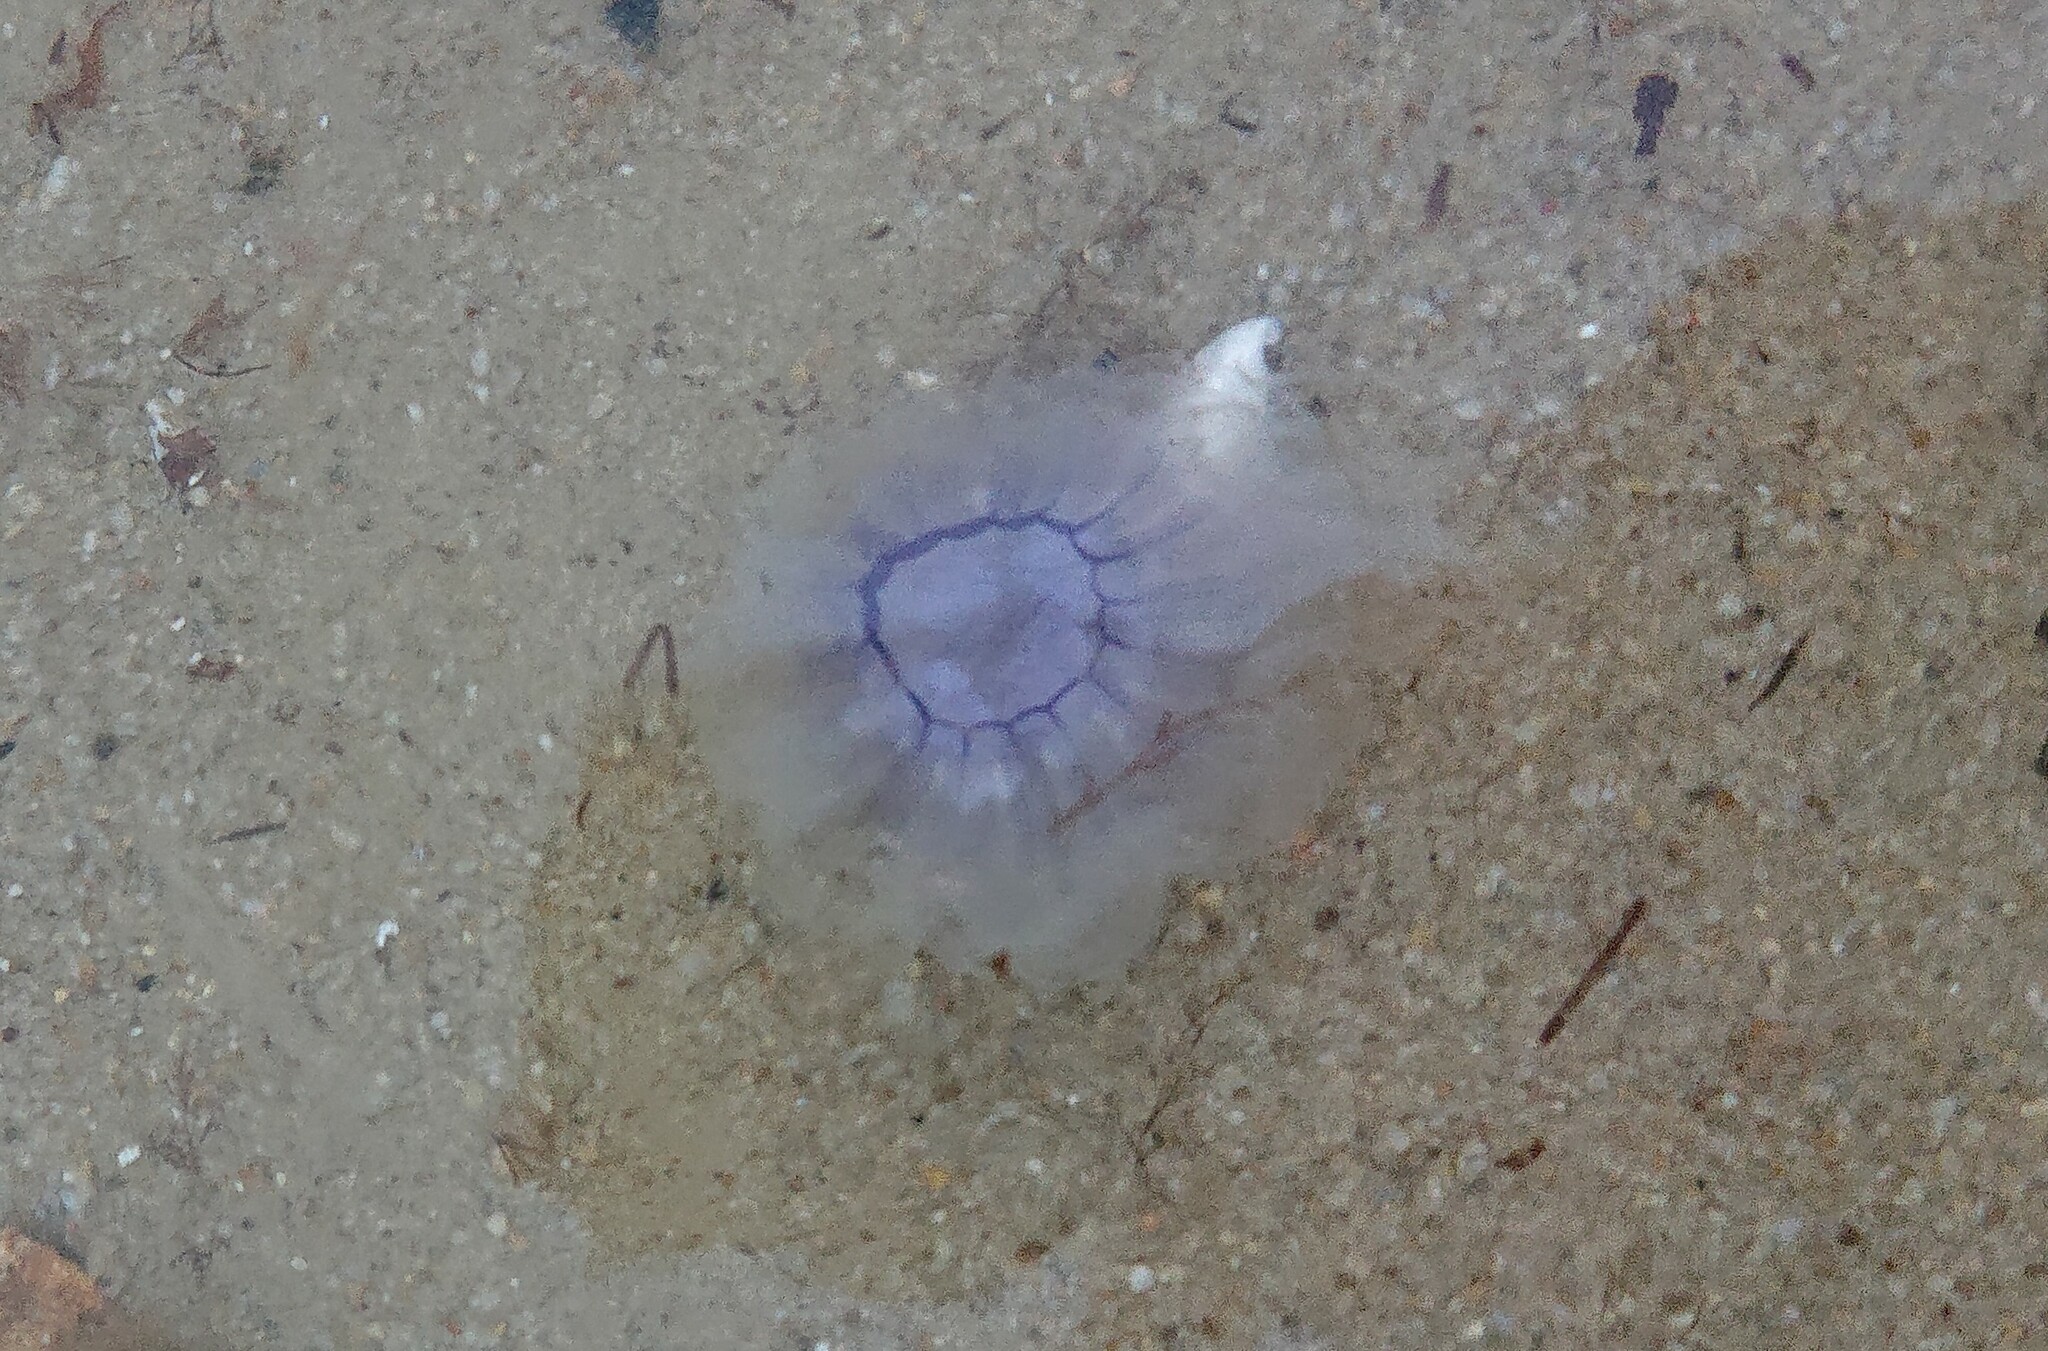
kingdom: Animalia
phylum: Cnidaria
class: Scyphozoa
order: Semaeostomeae
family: Cyaneidae
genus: Cyanea
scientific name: Cyanea lamarckii
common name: Blue jellyfish
